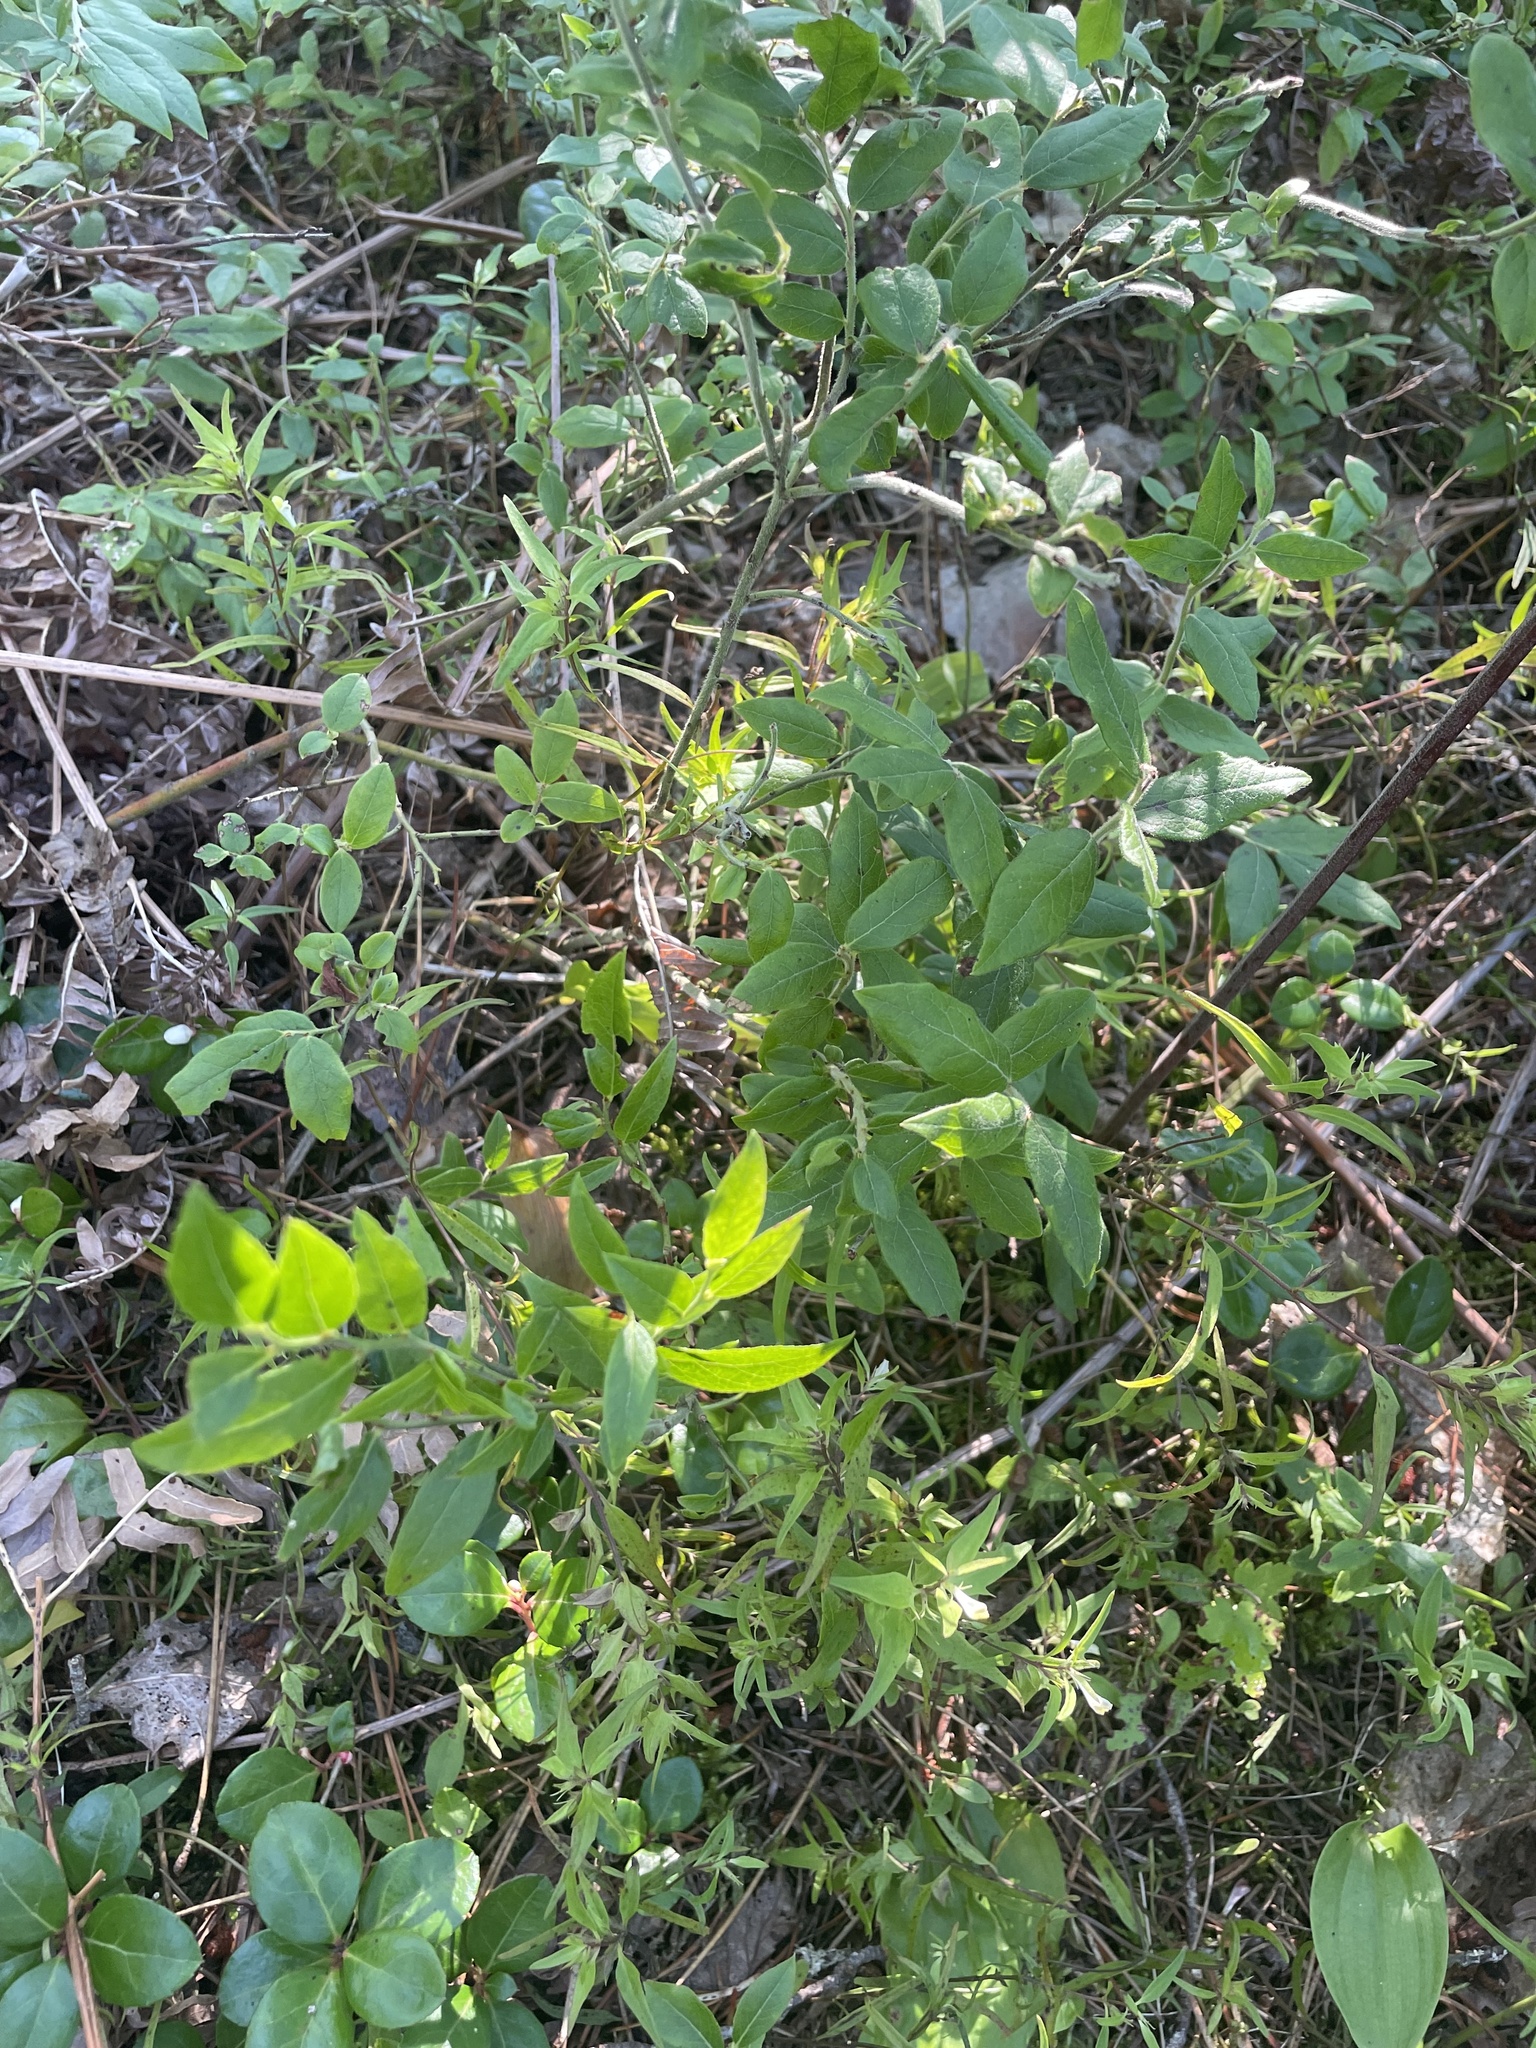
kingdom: Plantae
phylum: Tracheophyta
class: Magnoliopsida
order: Ericales
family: Ericaceae
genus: Vaccinium
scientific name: Vaccinium myrtilloides
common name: Canada blueberry
